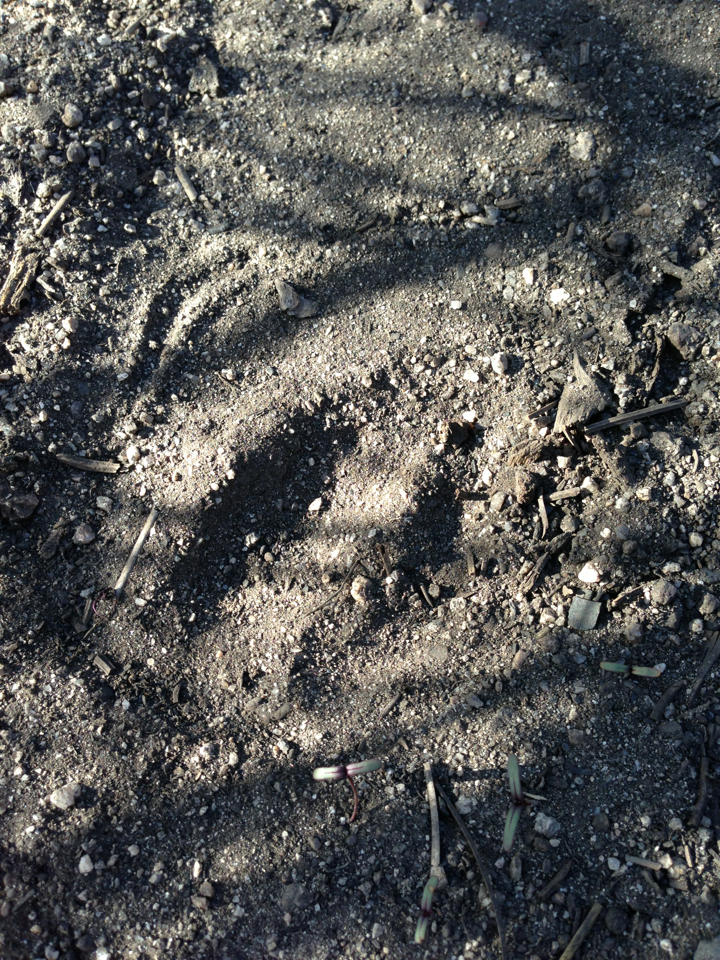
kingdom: Animalia
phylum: Chordata
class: Mammalia
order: Artiodactyla
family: Cervidae
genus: Odocoileus
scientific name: Odocoileus hemionus
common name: Mule deer
